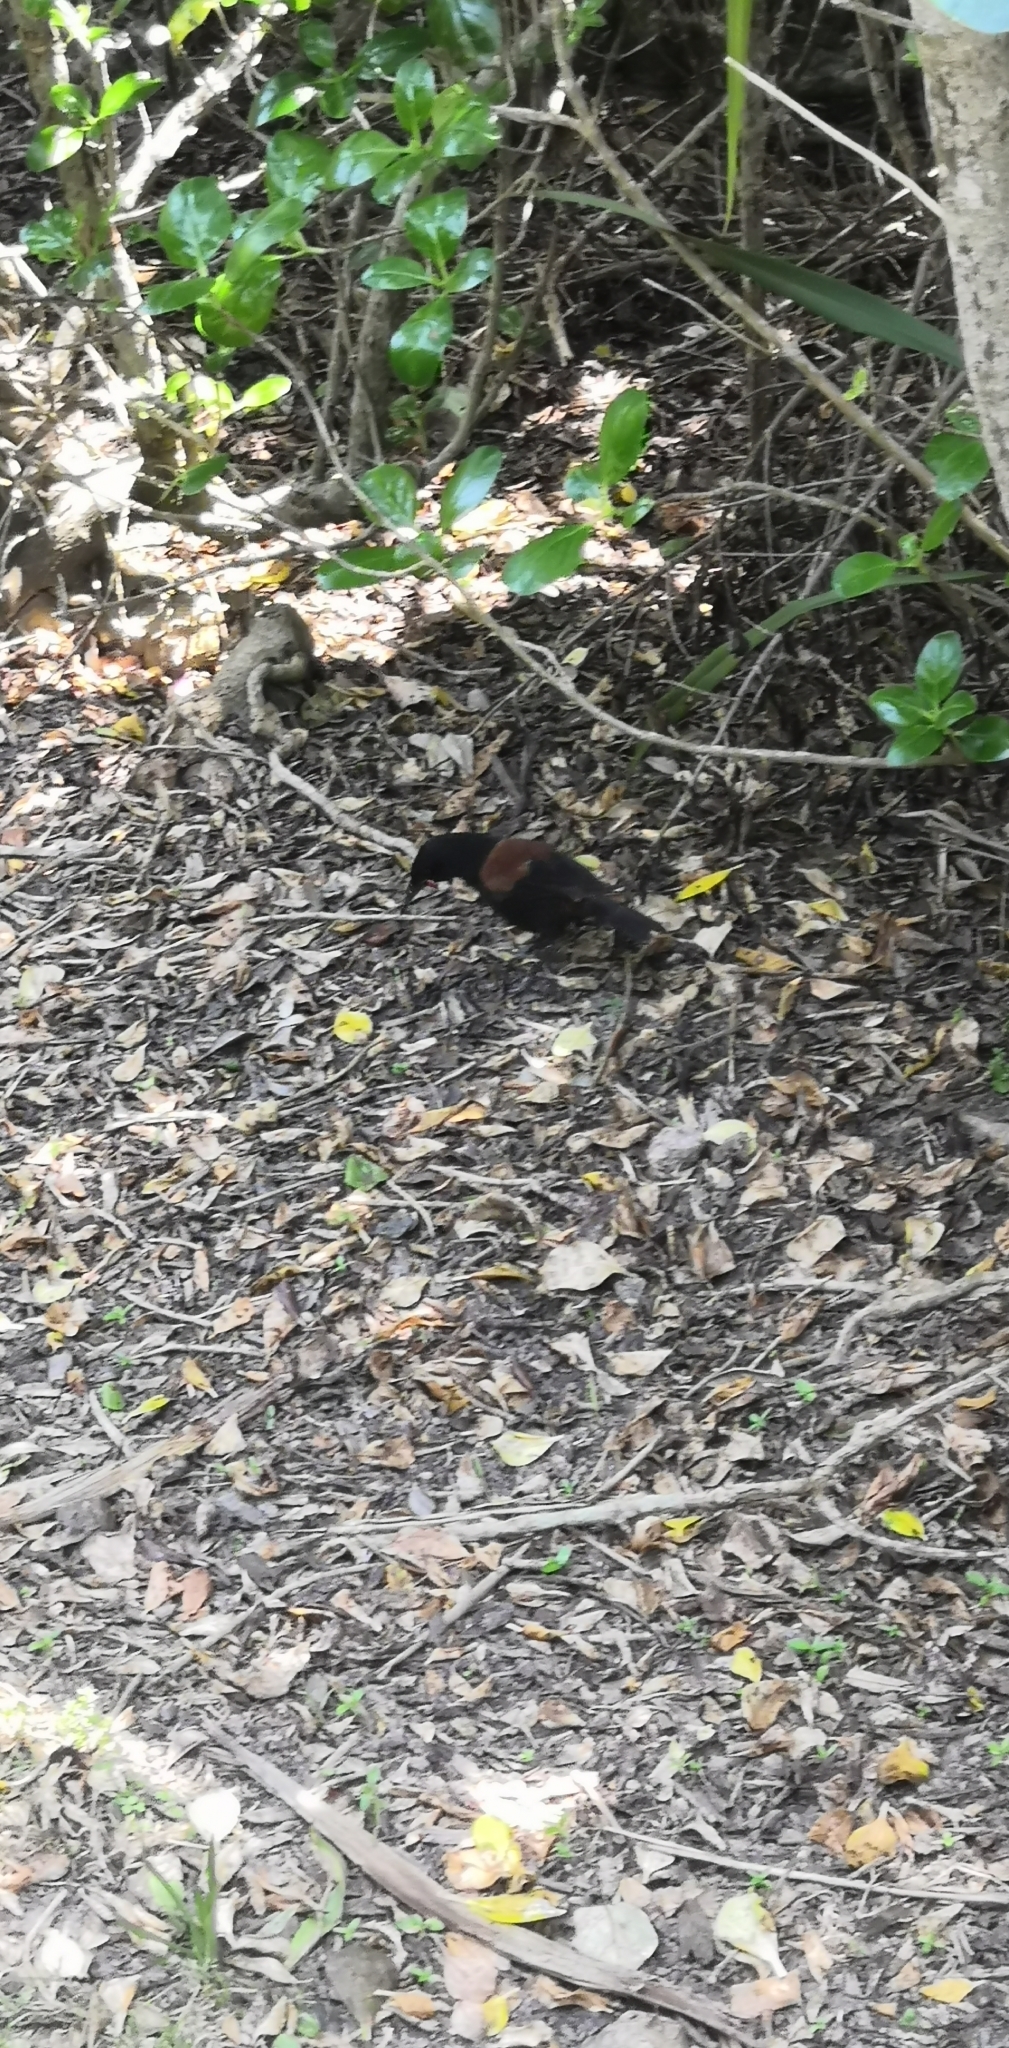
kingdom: Animalia
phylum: Chordata
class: Aves
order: Passeriformes
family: Callaeatidae
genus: Philesturnus
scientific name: Philesturnus carunculatus
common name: South island saddleback
